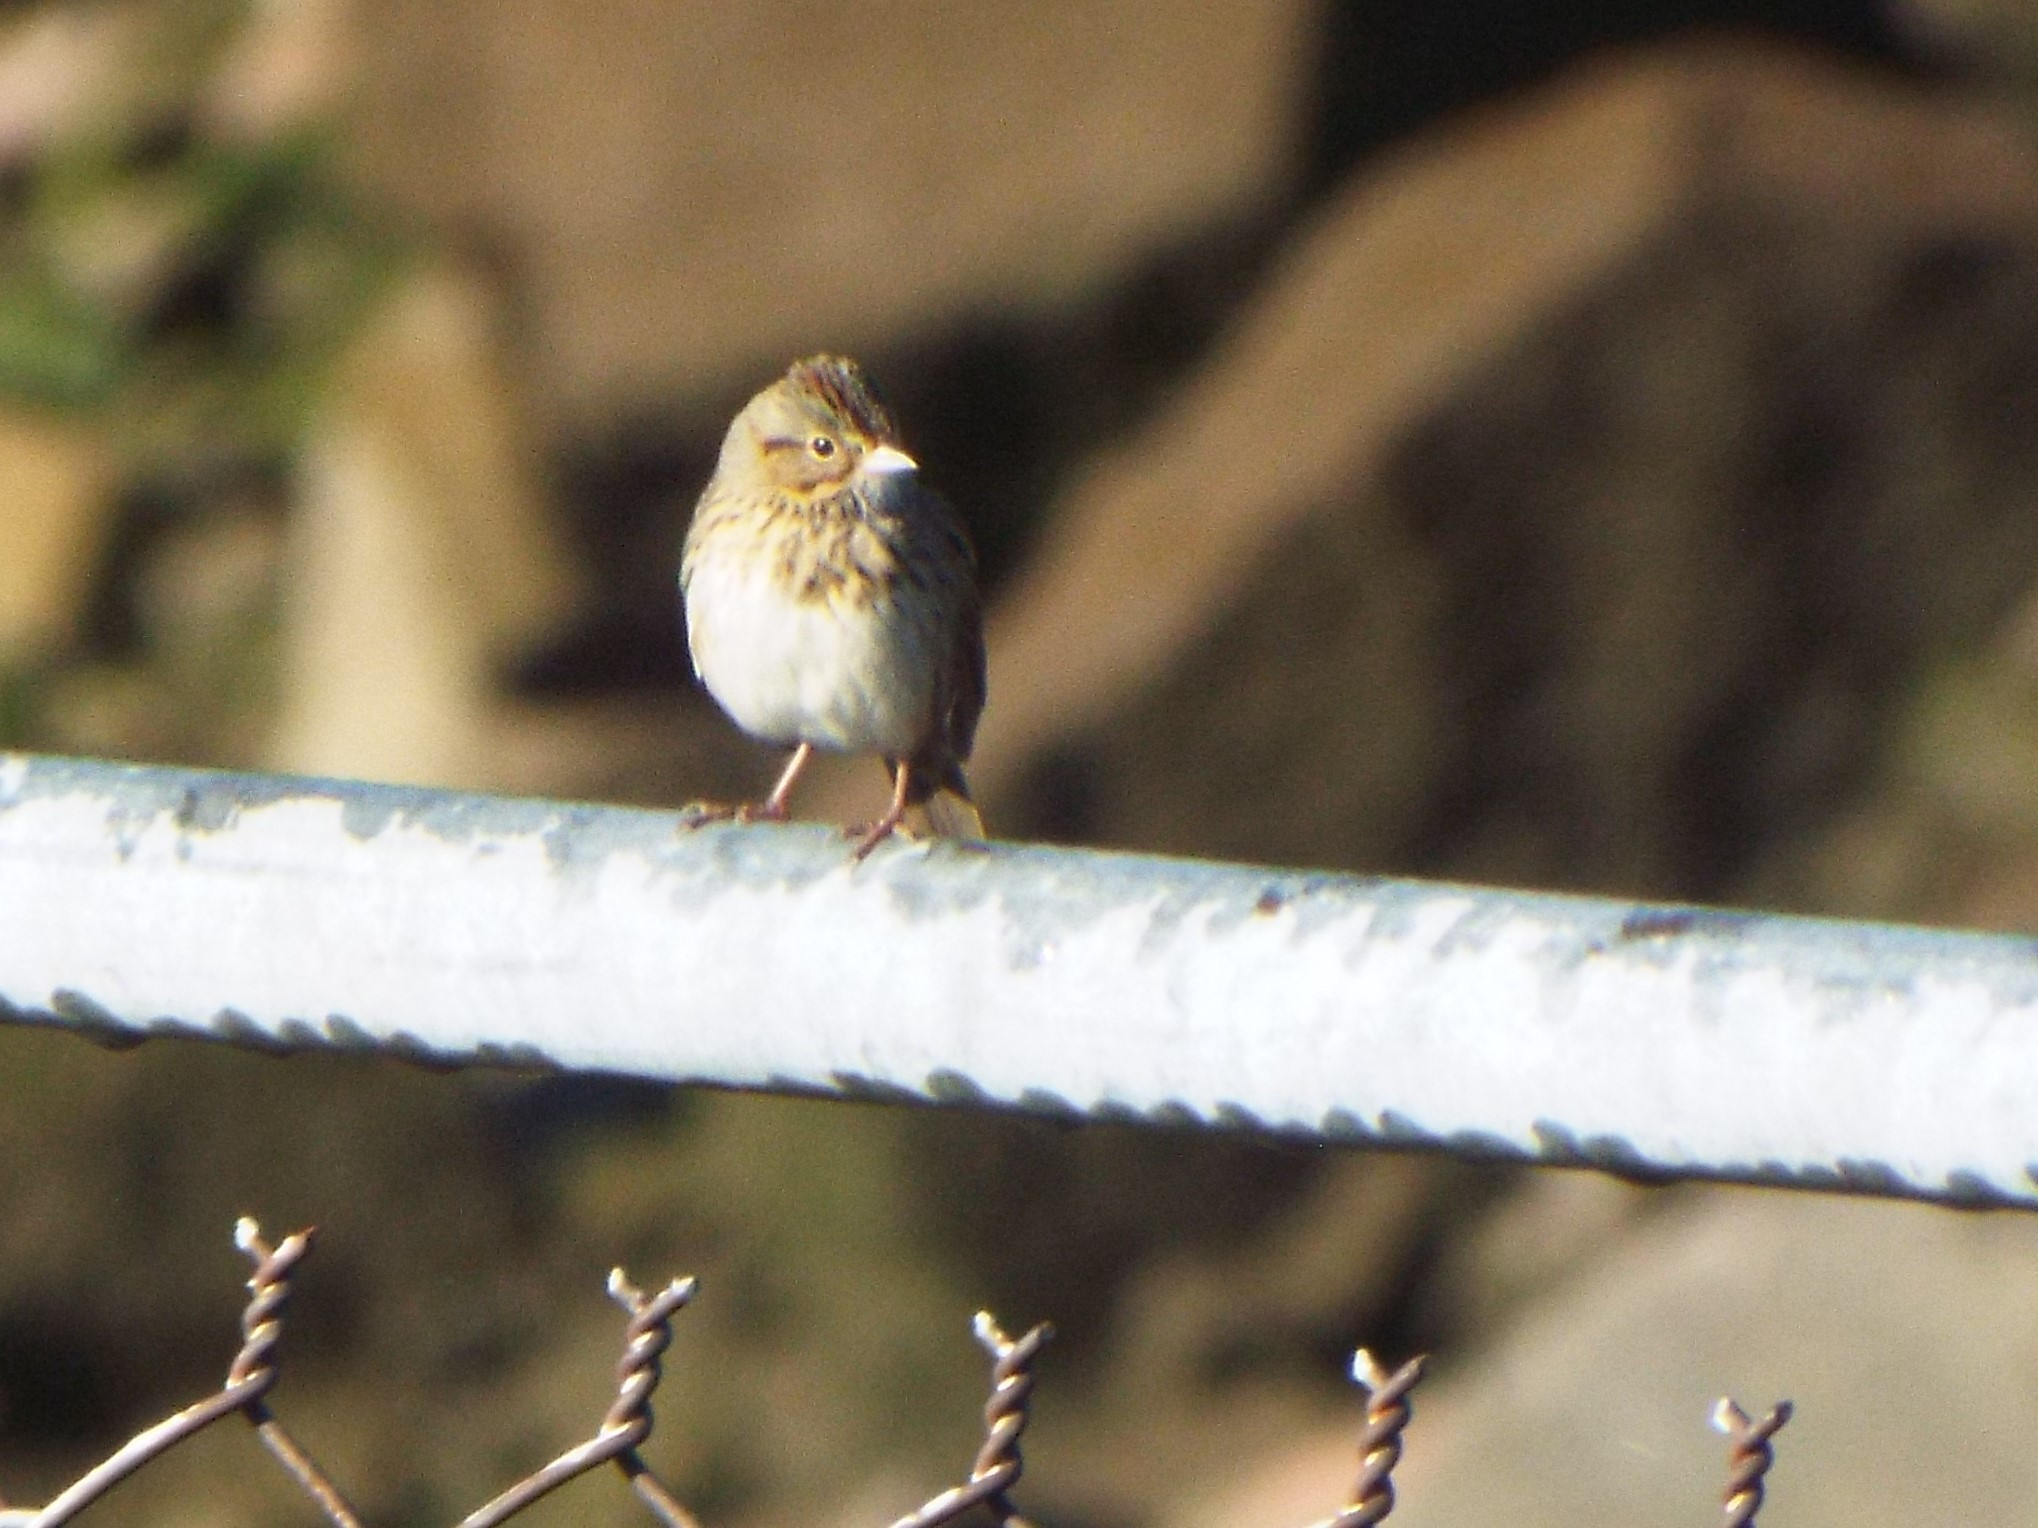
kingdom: Animalia
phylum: Chordata
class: Aves
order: Passeriformes
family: Passerellidae
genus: Melospiza
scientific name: Melospiza lincolnii
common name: Lincoln's sparrow
